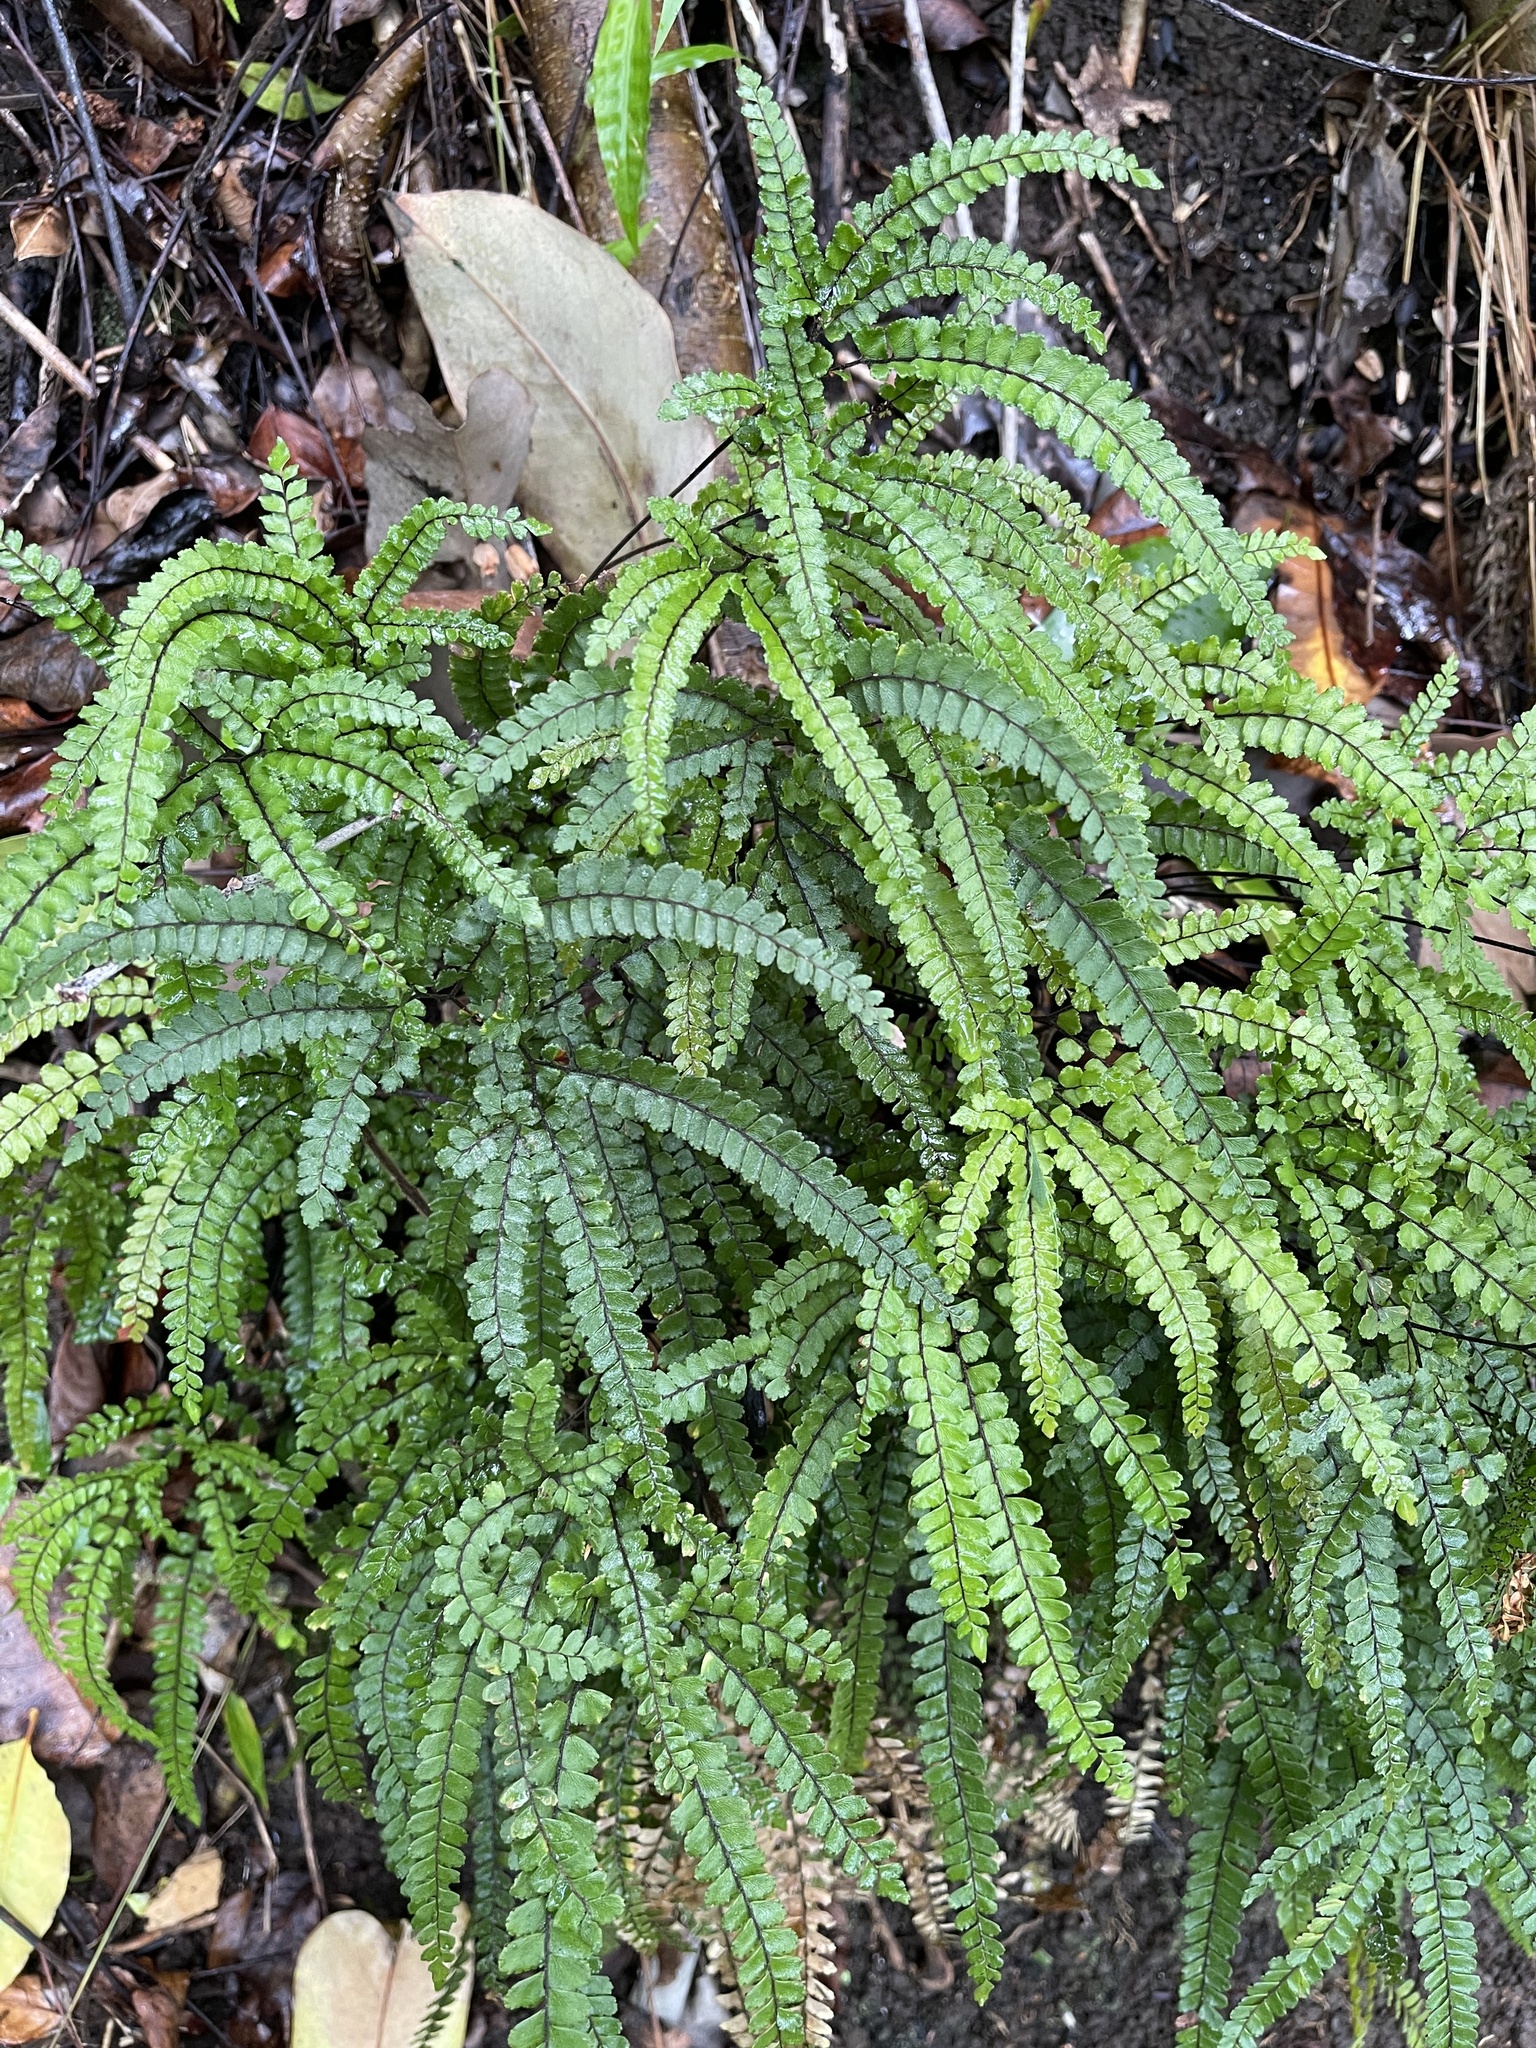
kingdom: Plantae
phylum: Tracheophyta
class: Polypodiopsida
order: Polypodiales
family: Pteridaceae
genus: Adiantum
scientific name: Adiantum hispidulum
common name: Rough maidenhair
